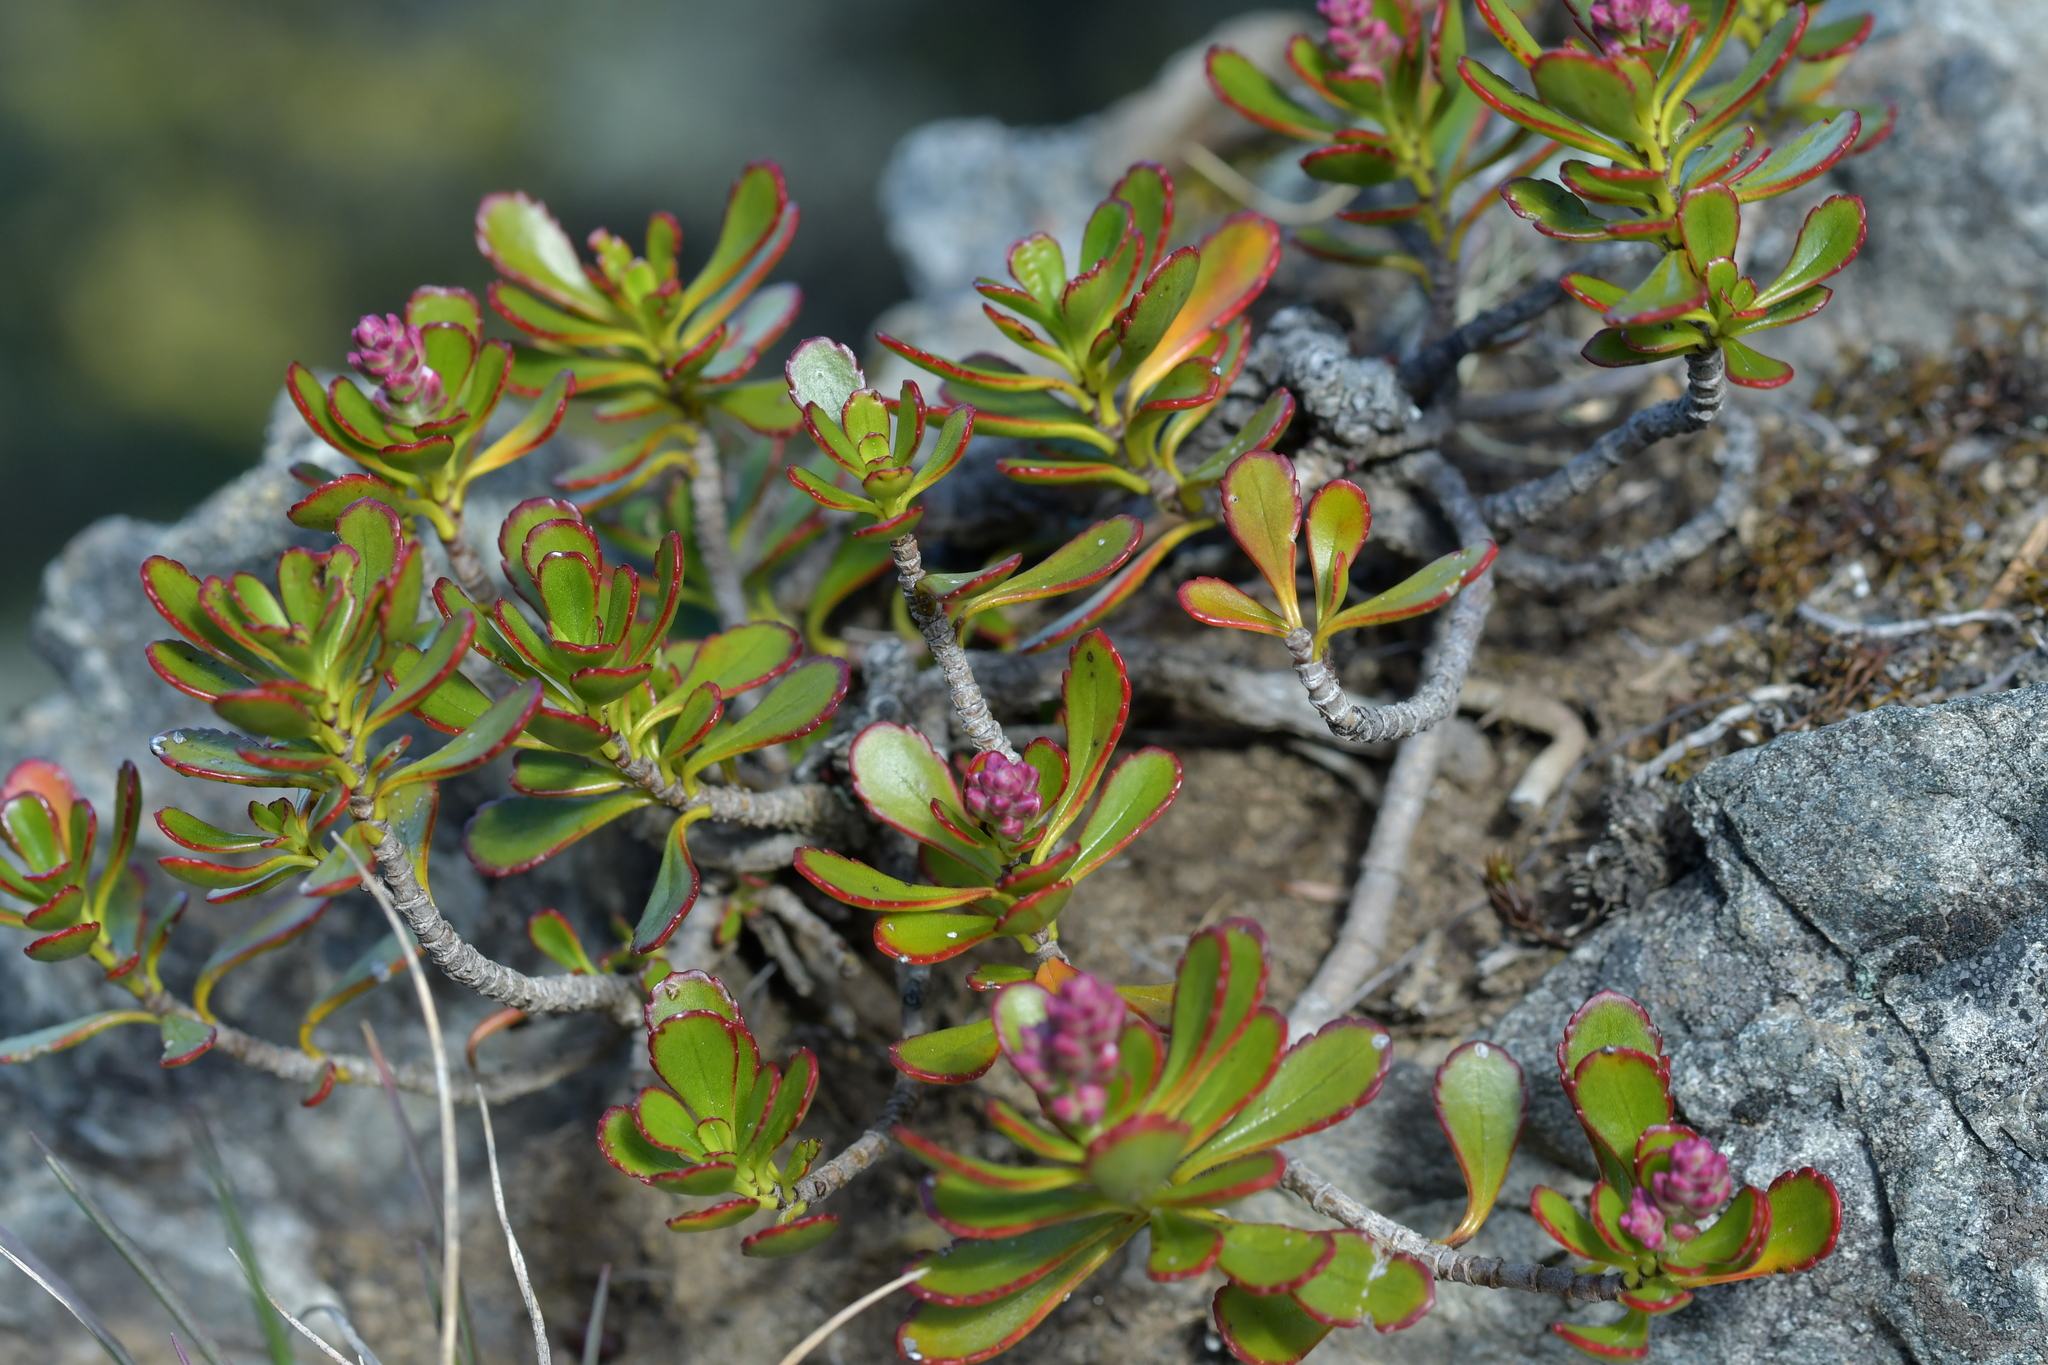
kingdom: Plantae
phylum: Tracheophyta
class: Magnoliopsida
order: Lamiales
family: Plantaginaceae
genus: Veronica
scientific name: Veronica raoulii
